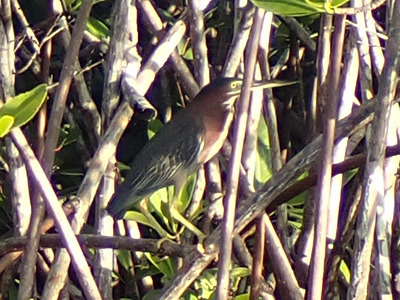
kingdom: Animalia
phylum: Chordata
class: Aves
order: Pelecaniformes
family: Ardeidae
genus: Butorides
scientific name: Butorides virescens
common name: Green heron
